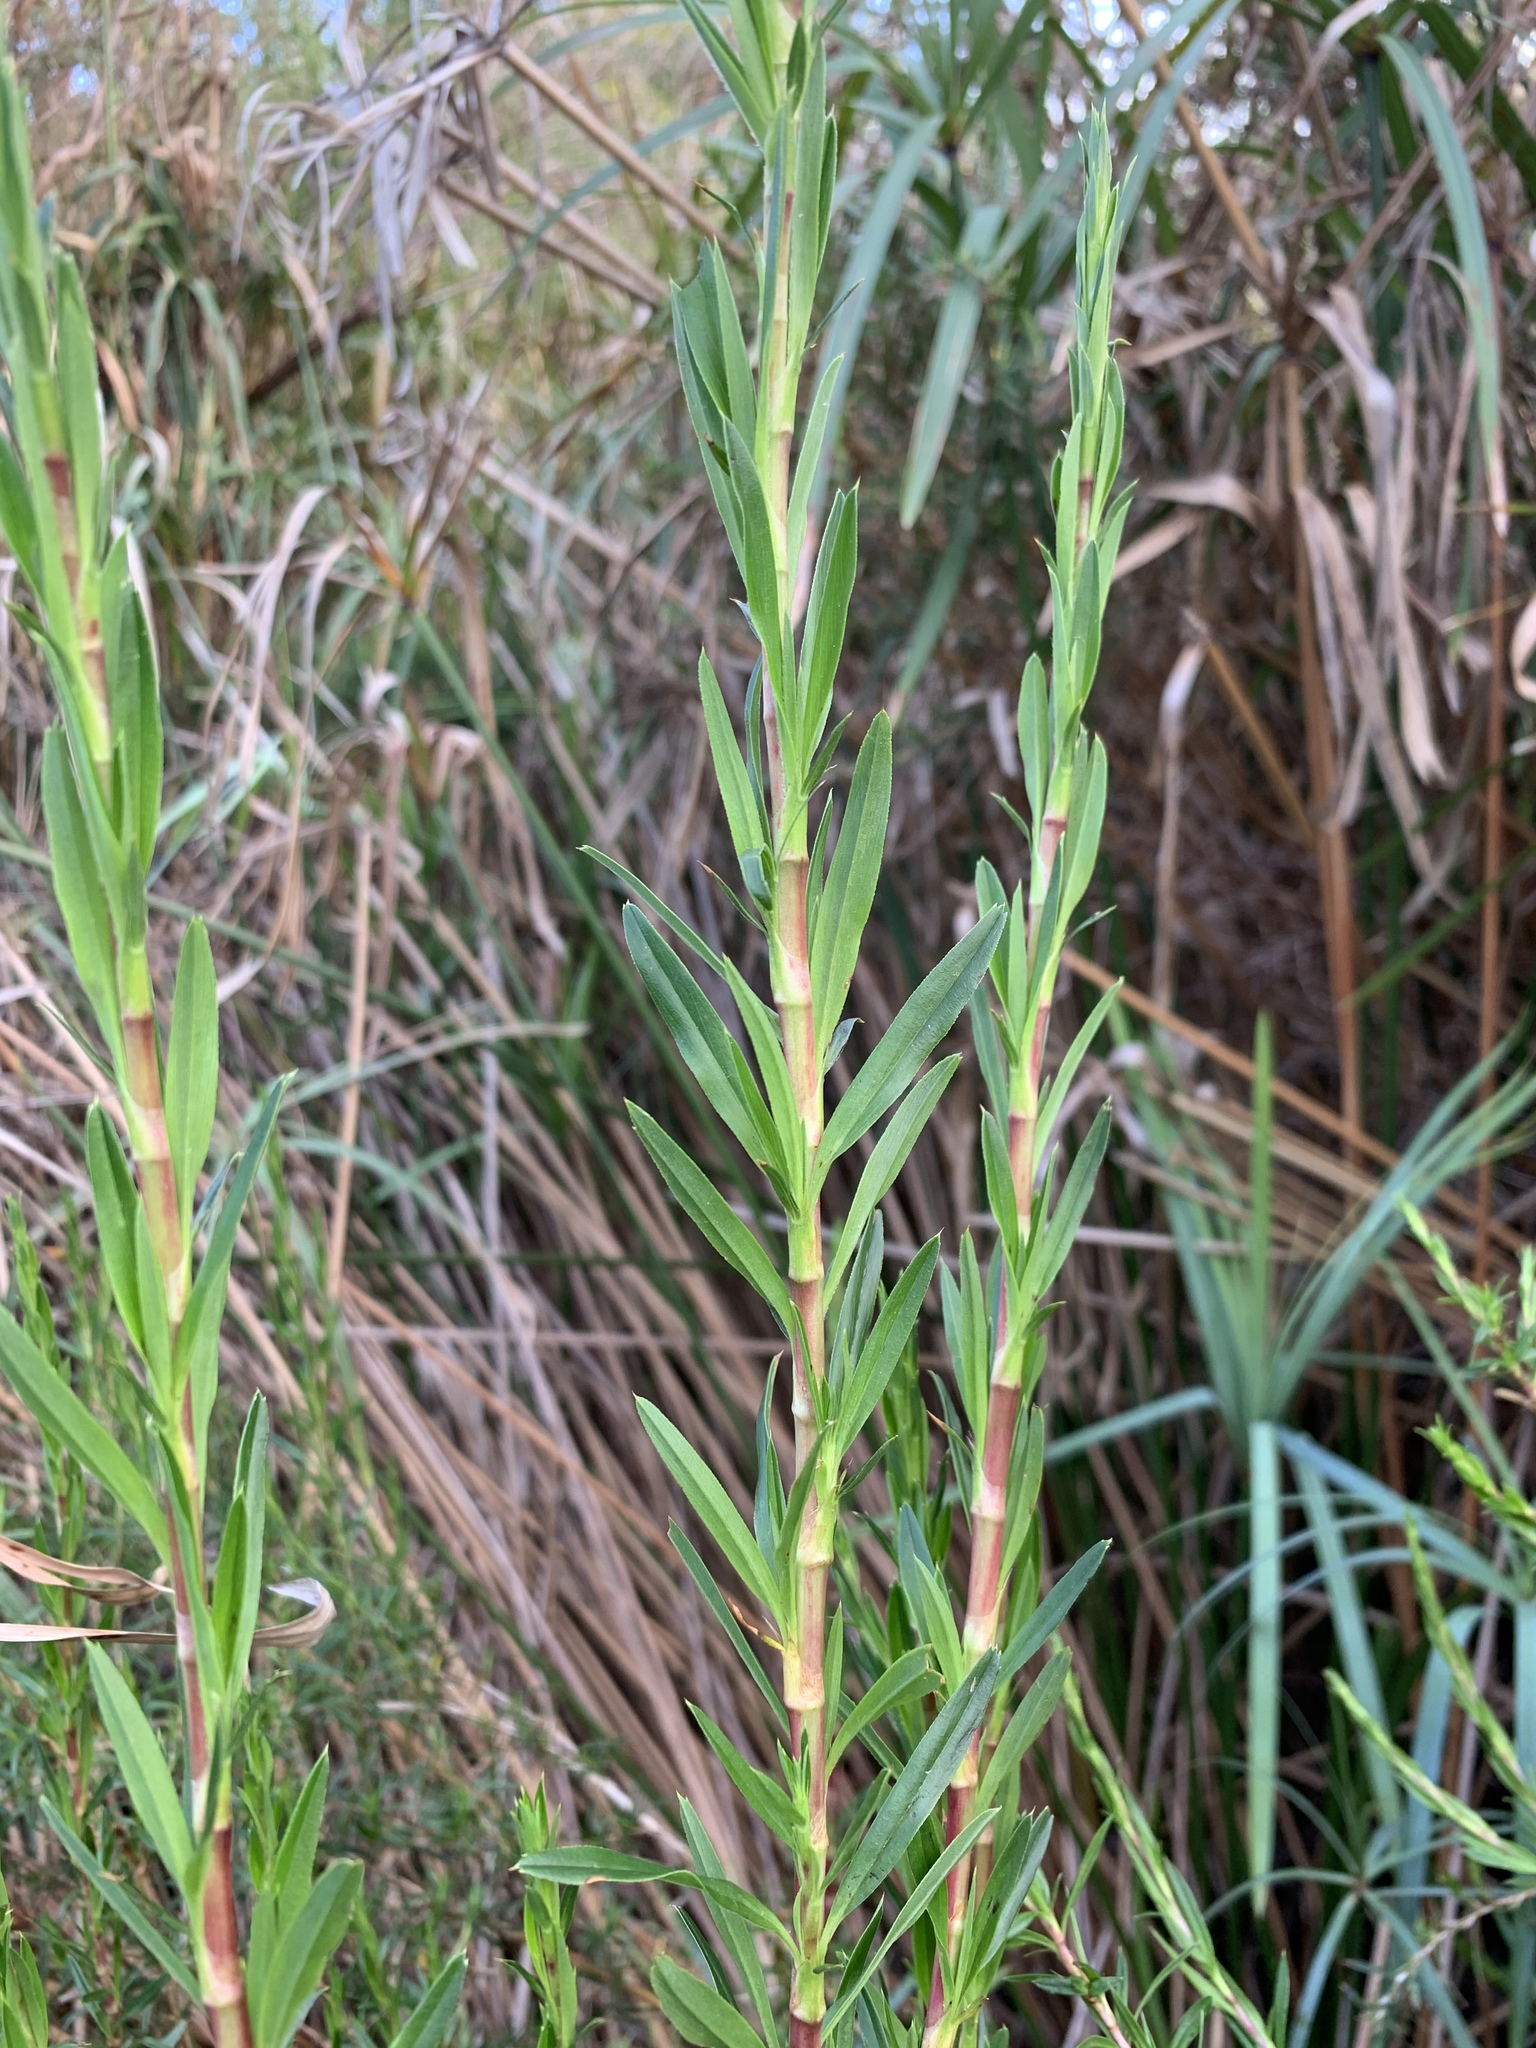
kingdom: Plantae
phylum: Tracheophyta
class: Magnoliopsida
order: Rosales
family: Rosaceae
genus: Cliffortia
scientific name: Cliffortia strobilifera
